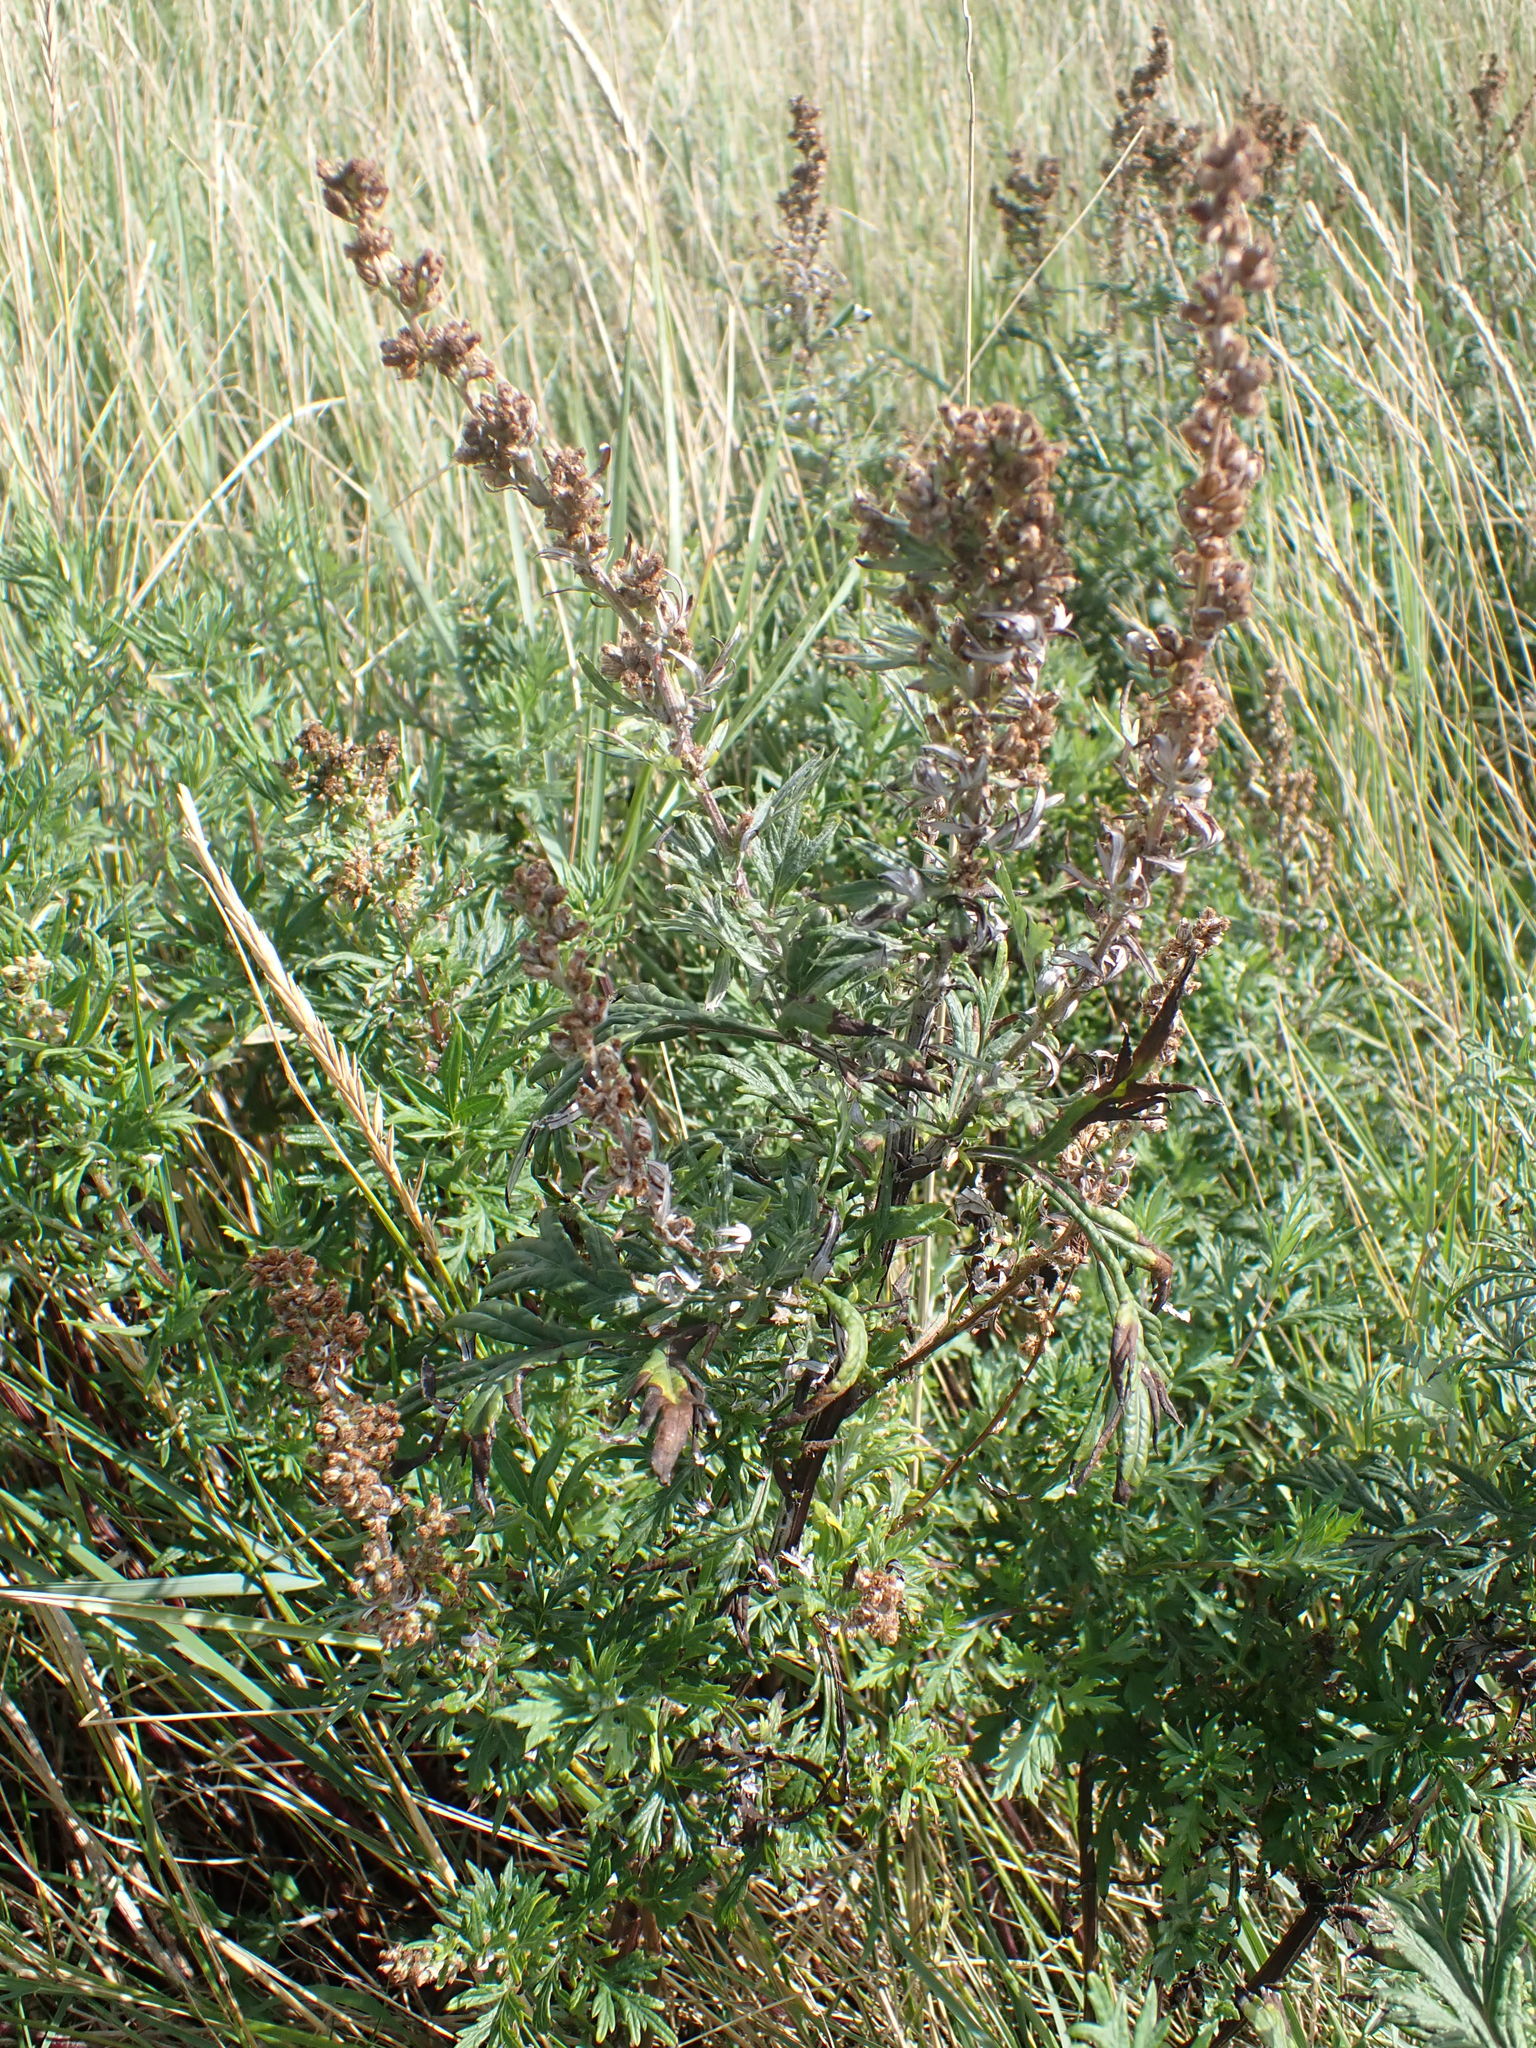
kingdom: Plantae
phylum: Tracheophyta
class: Magnoliopsida
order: Asterales
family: Asteraceae
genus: Artemisia
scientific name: Artemisia vulgaris
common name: Mugwort
